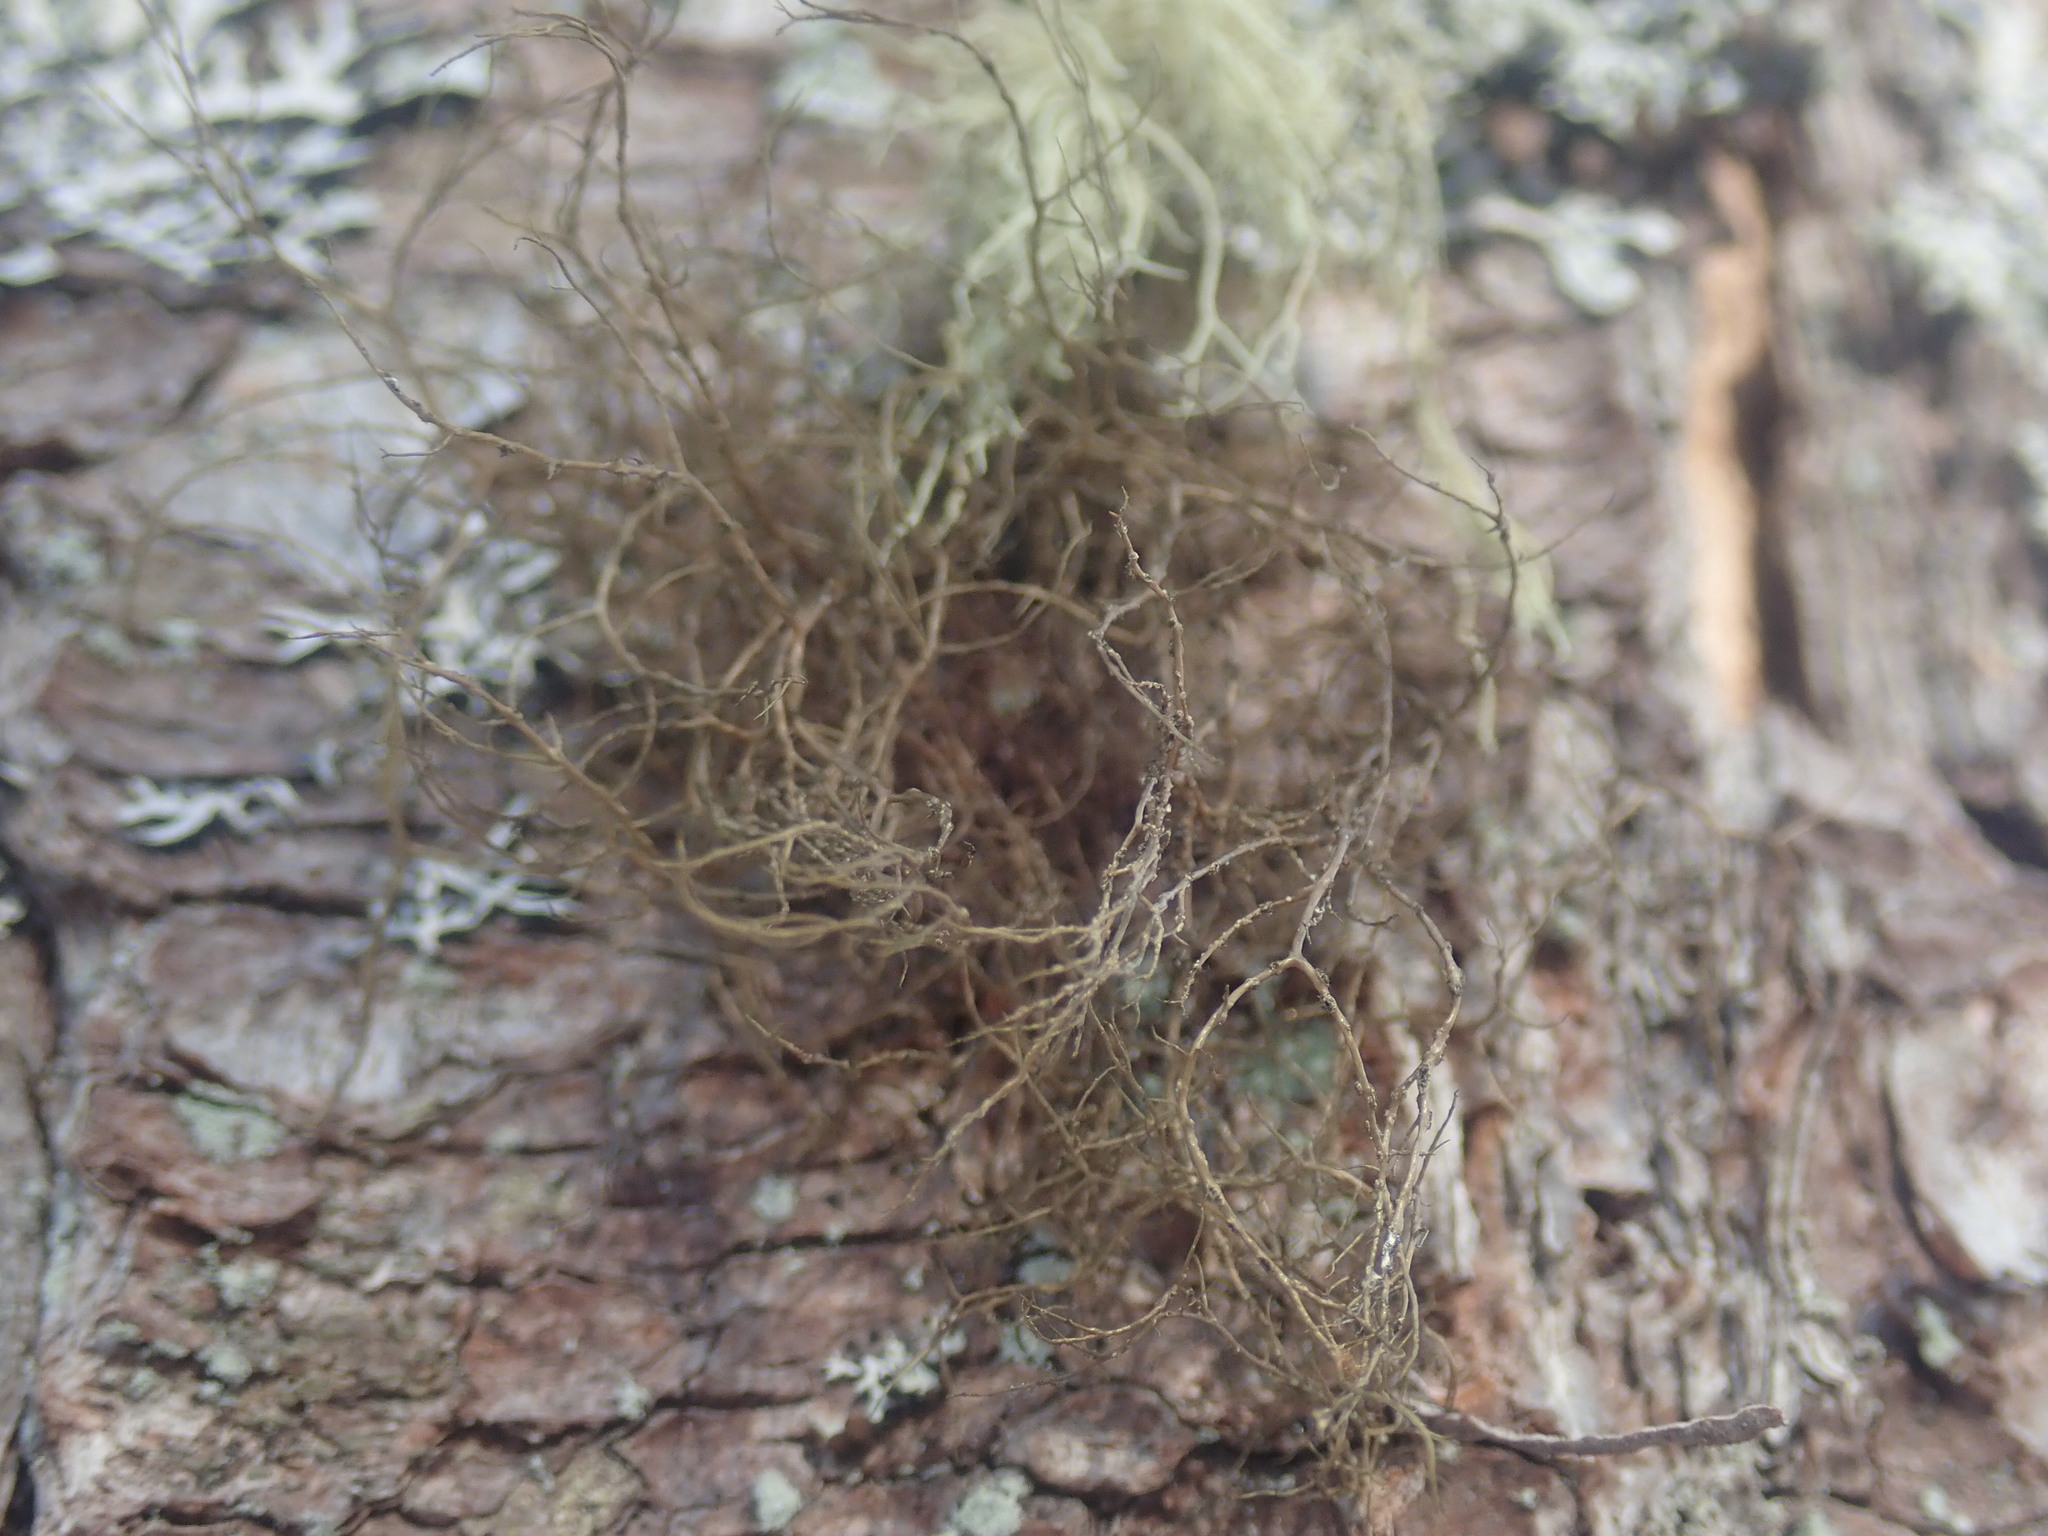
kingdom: Fungi
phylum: Ascomycota
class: Lecanoromycetes
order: Lecanorales
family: Parmeliaceae
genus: Bryoria
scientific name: Bryoria furcellata
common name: Forked hair-lichen
